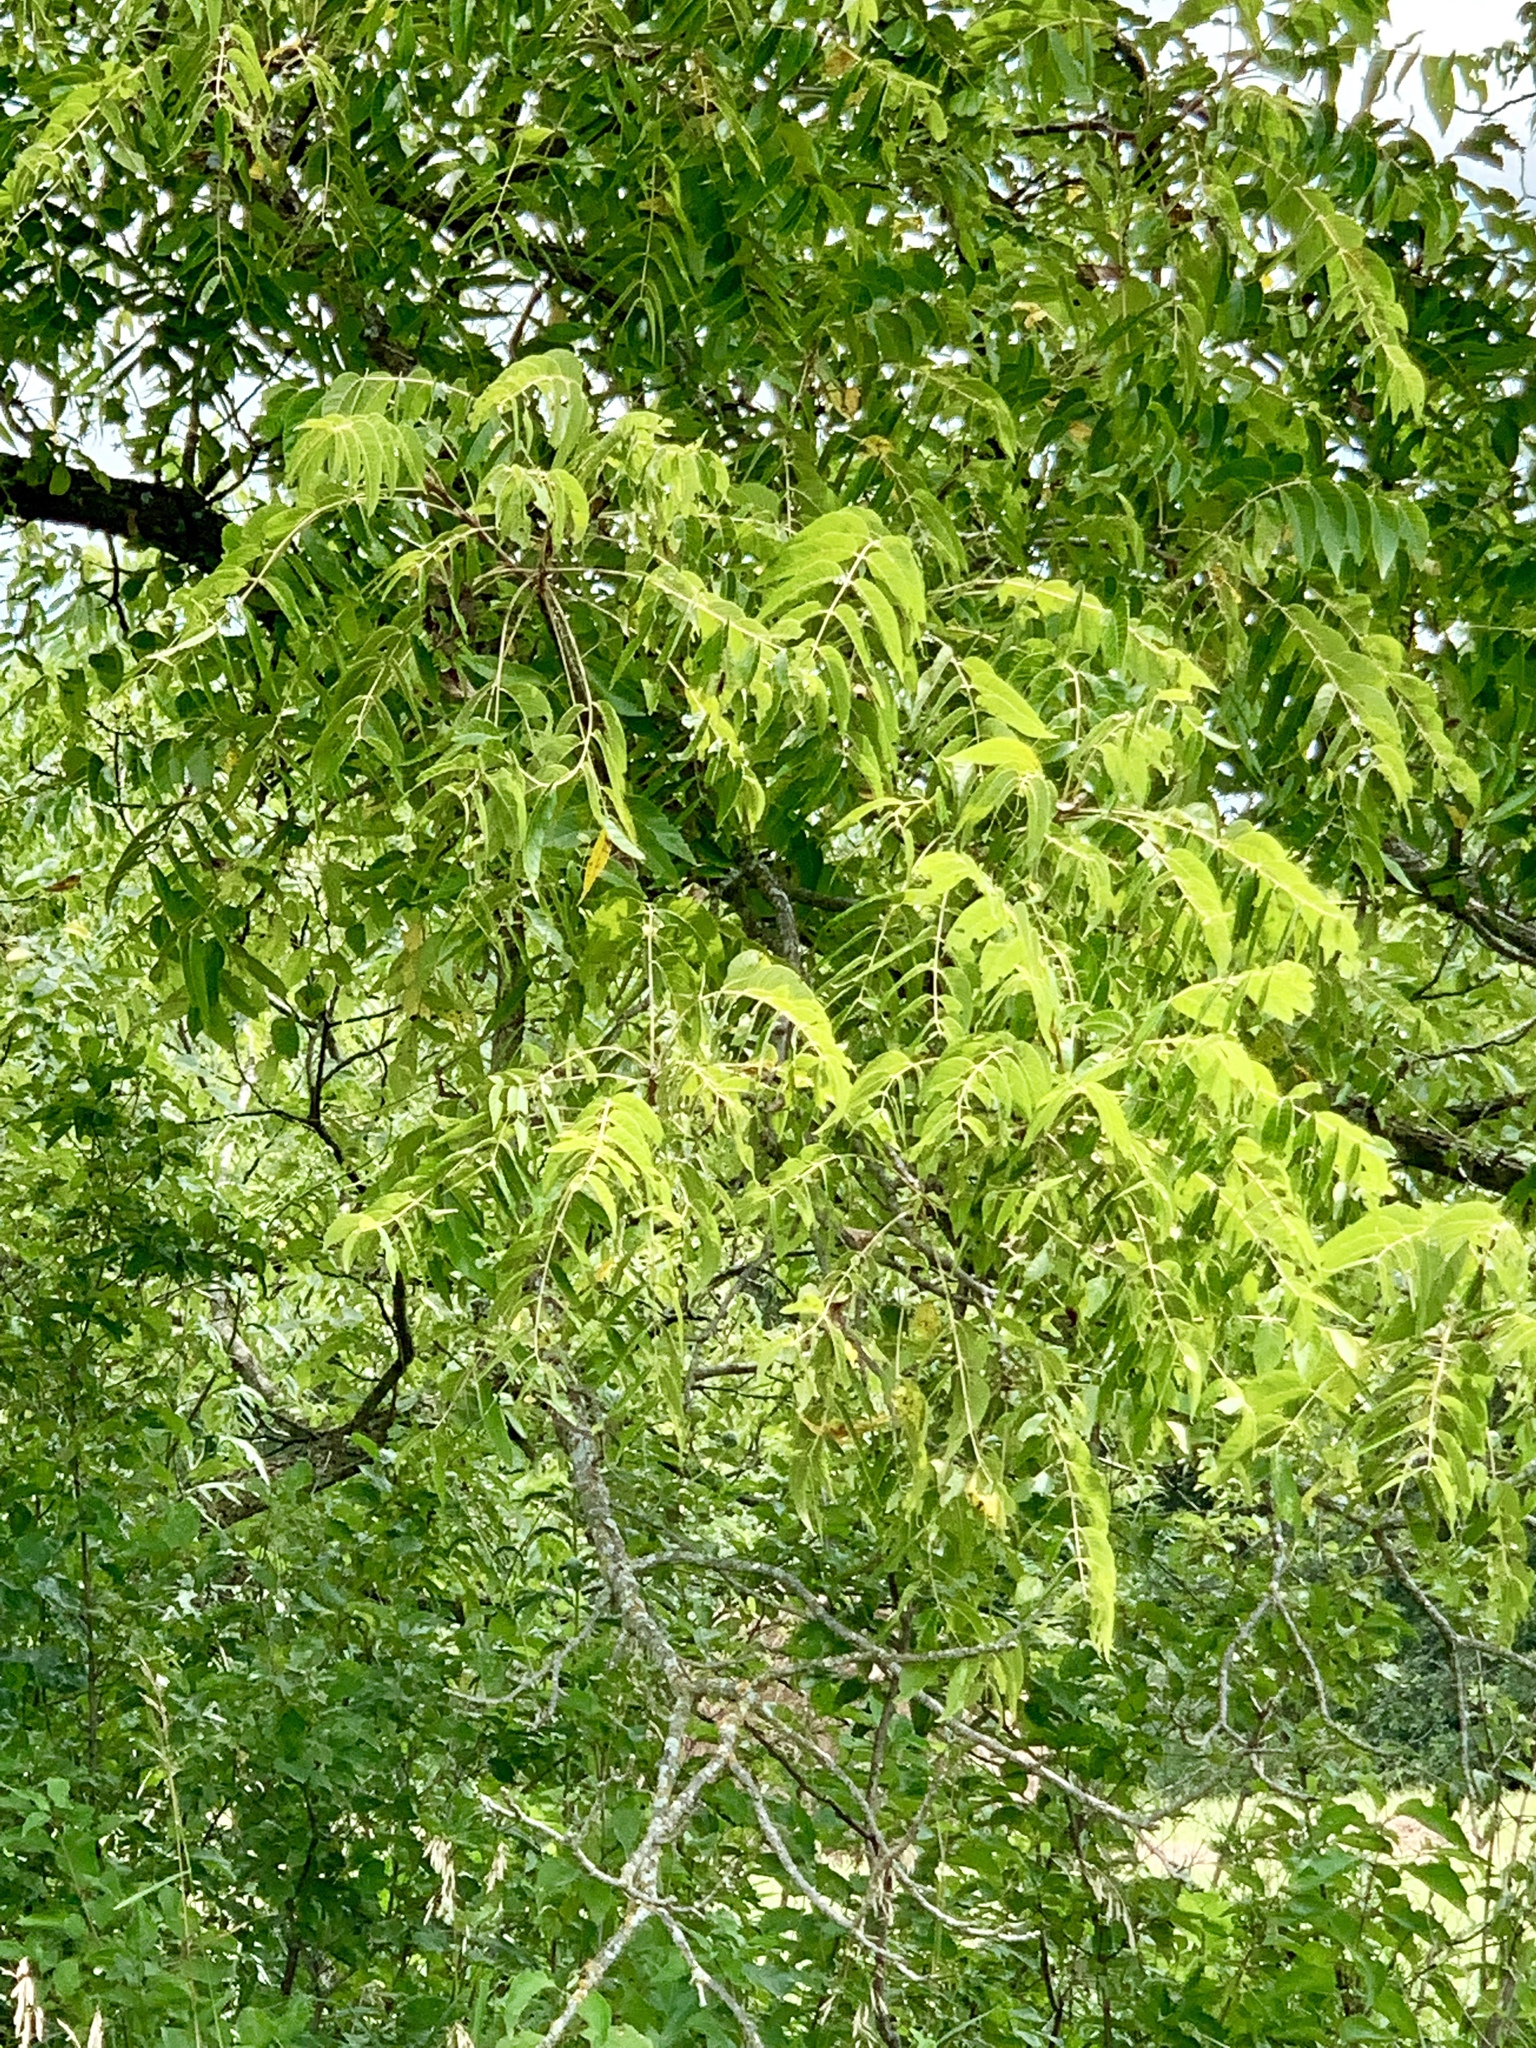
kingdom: Plantae
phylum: Tracheophyta
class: Magnoliopsida
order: Fagales
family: Juglandaceae
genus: Juglans
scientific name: Juglans nigra
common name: Black walnut
